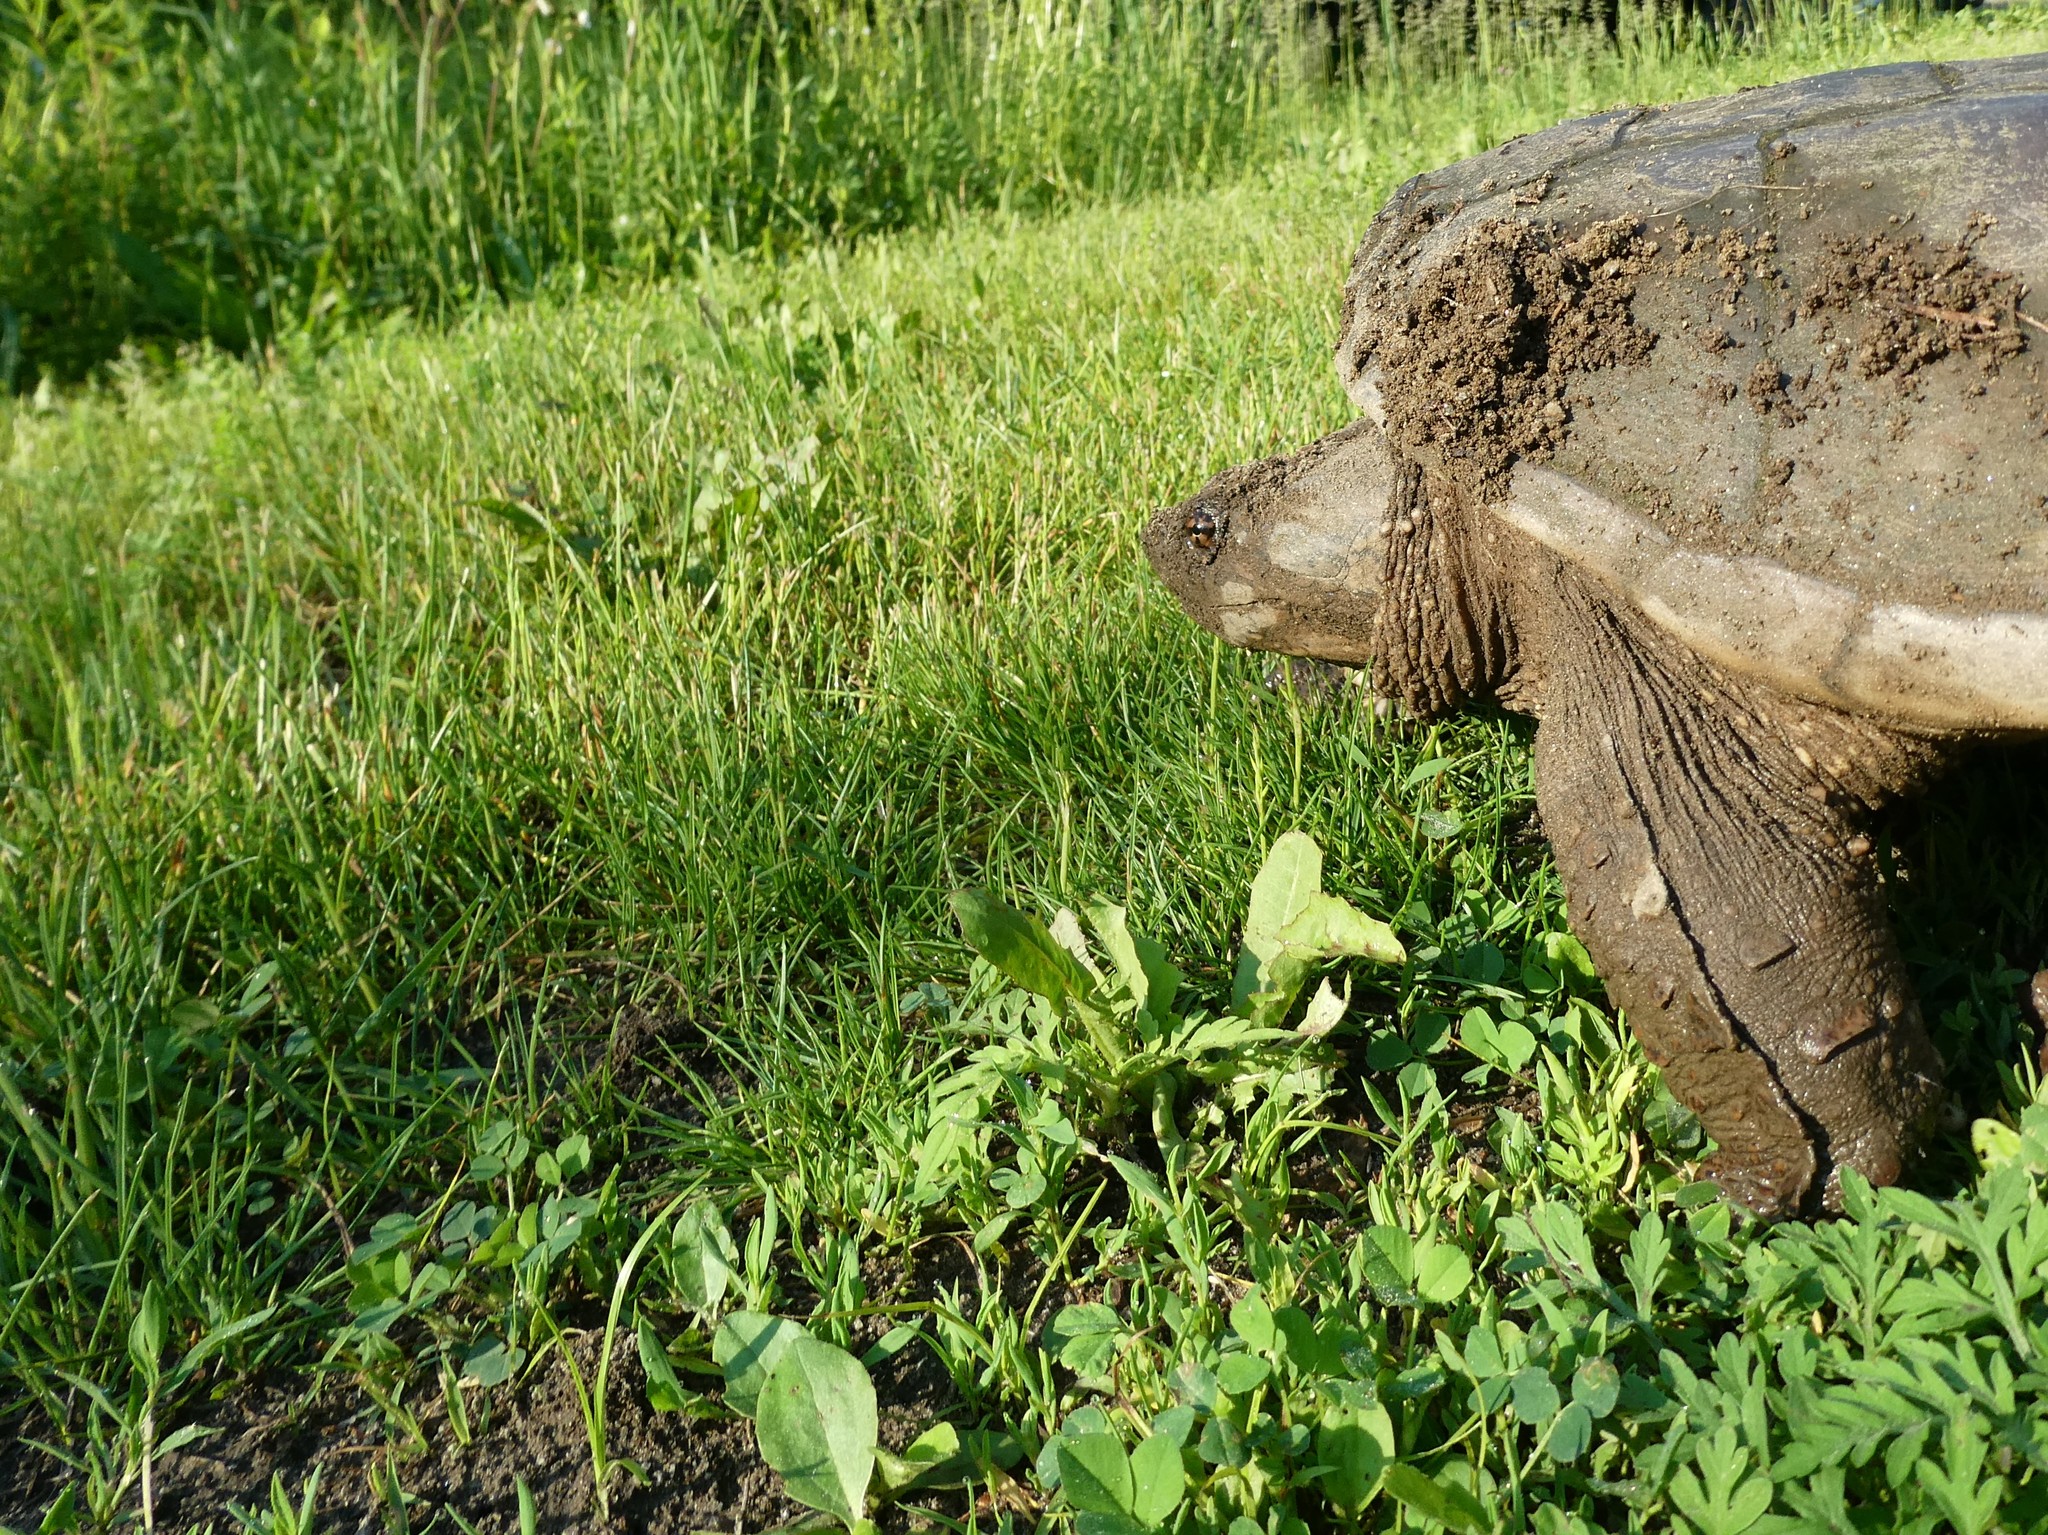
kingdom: Animalia
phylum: Chordata
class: Testudines
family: Chelydridae
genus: Chelydra
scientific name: Chelydra serpentina
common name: Common snapping turtle
